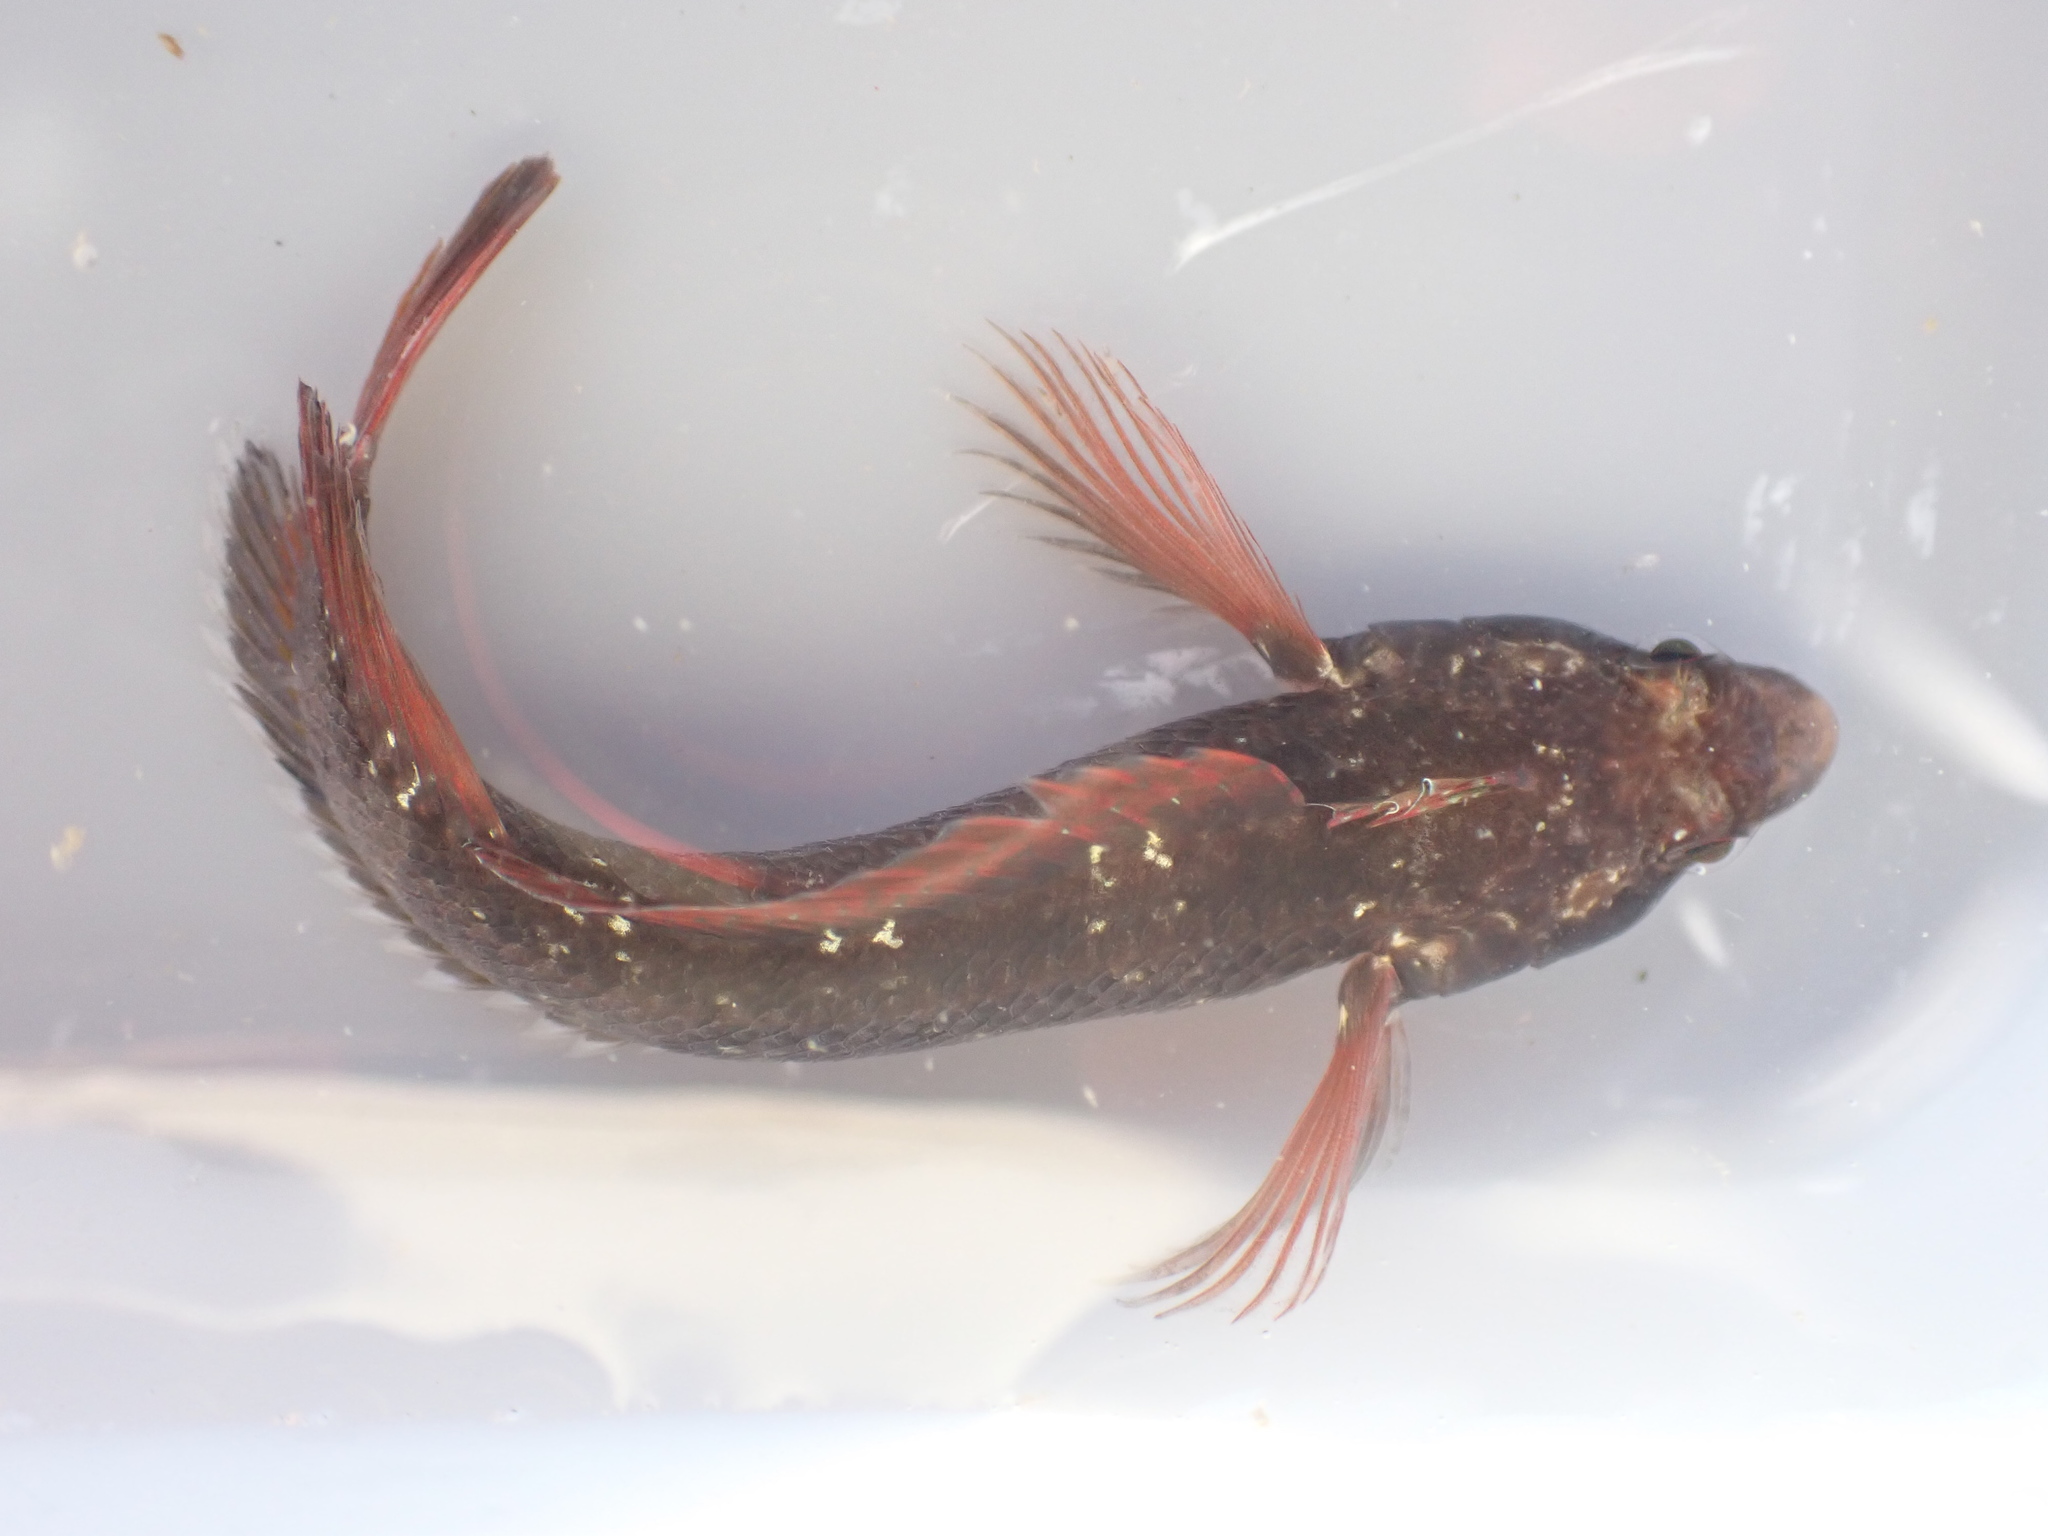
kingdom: Animalia
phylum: Chordata
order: Perciformes
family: Tripterygiidae
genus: Ruanoho
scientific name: Ruanoho decemdigitatus
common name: Longfinned triplefin
